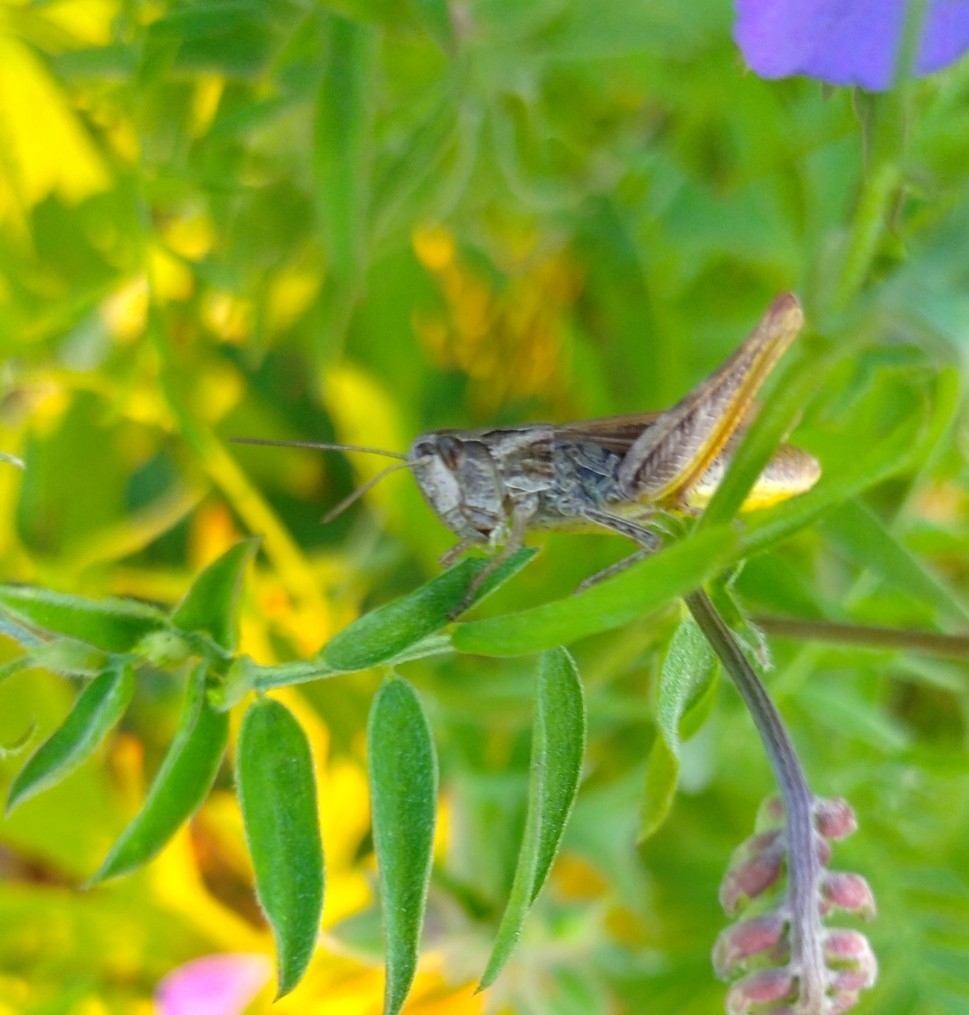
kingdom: Animalia
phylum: Arthropoda
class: Insecta
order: Orthoptera
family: Acrididae
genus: Chorthippus
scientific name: Chorthippus apricarius
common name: Upland field grasshopper
